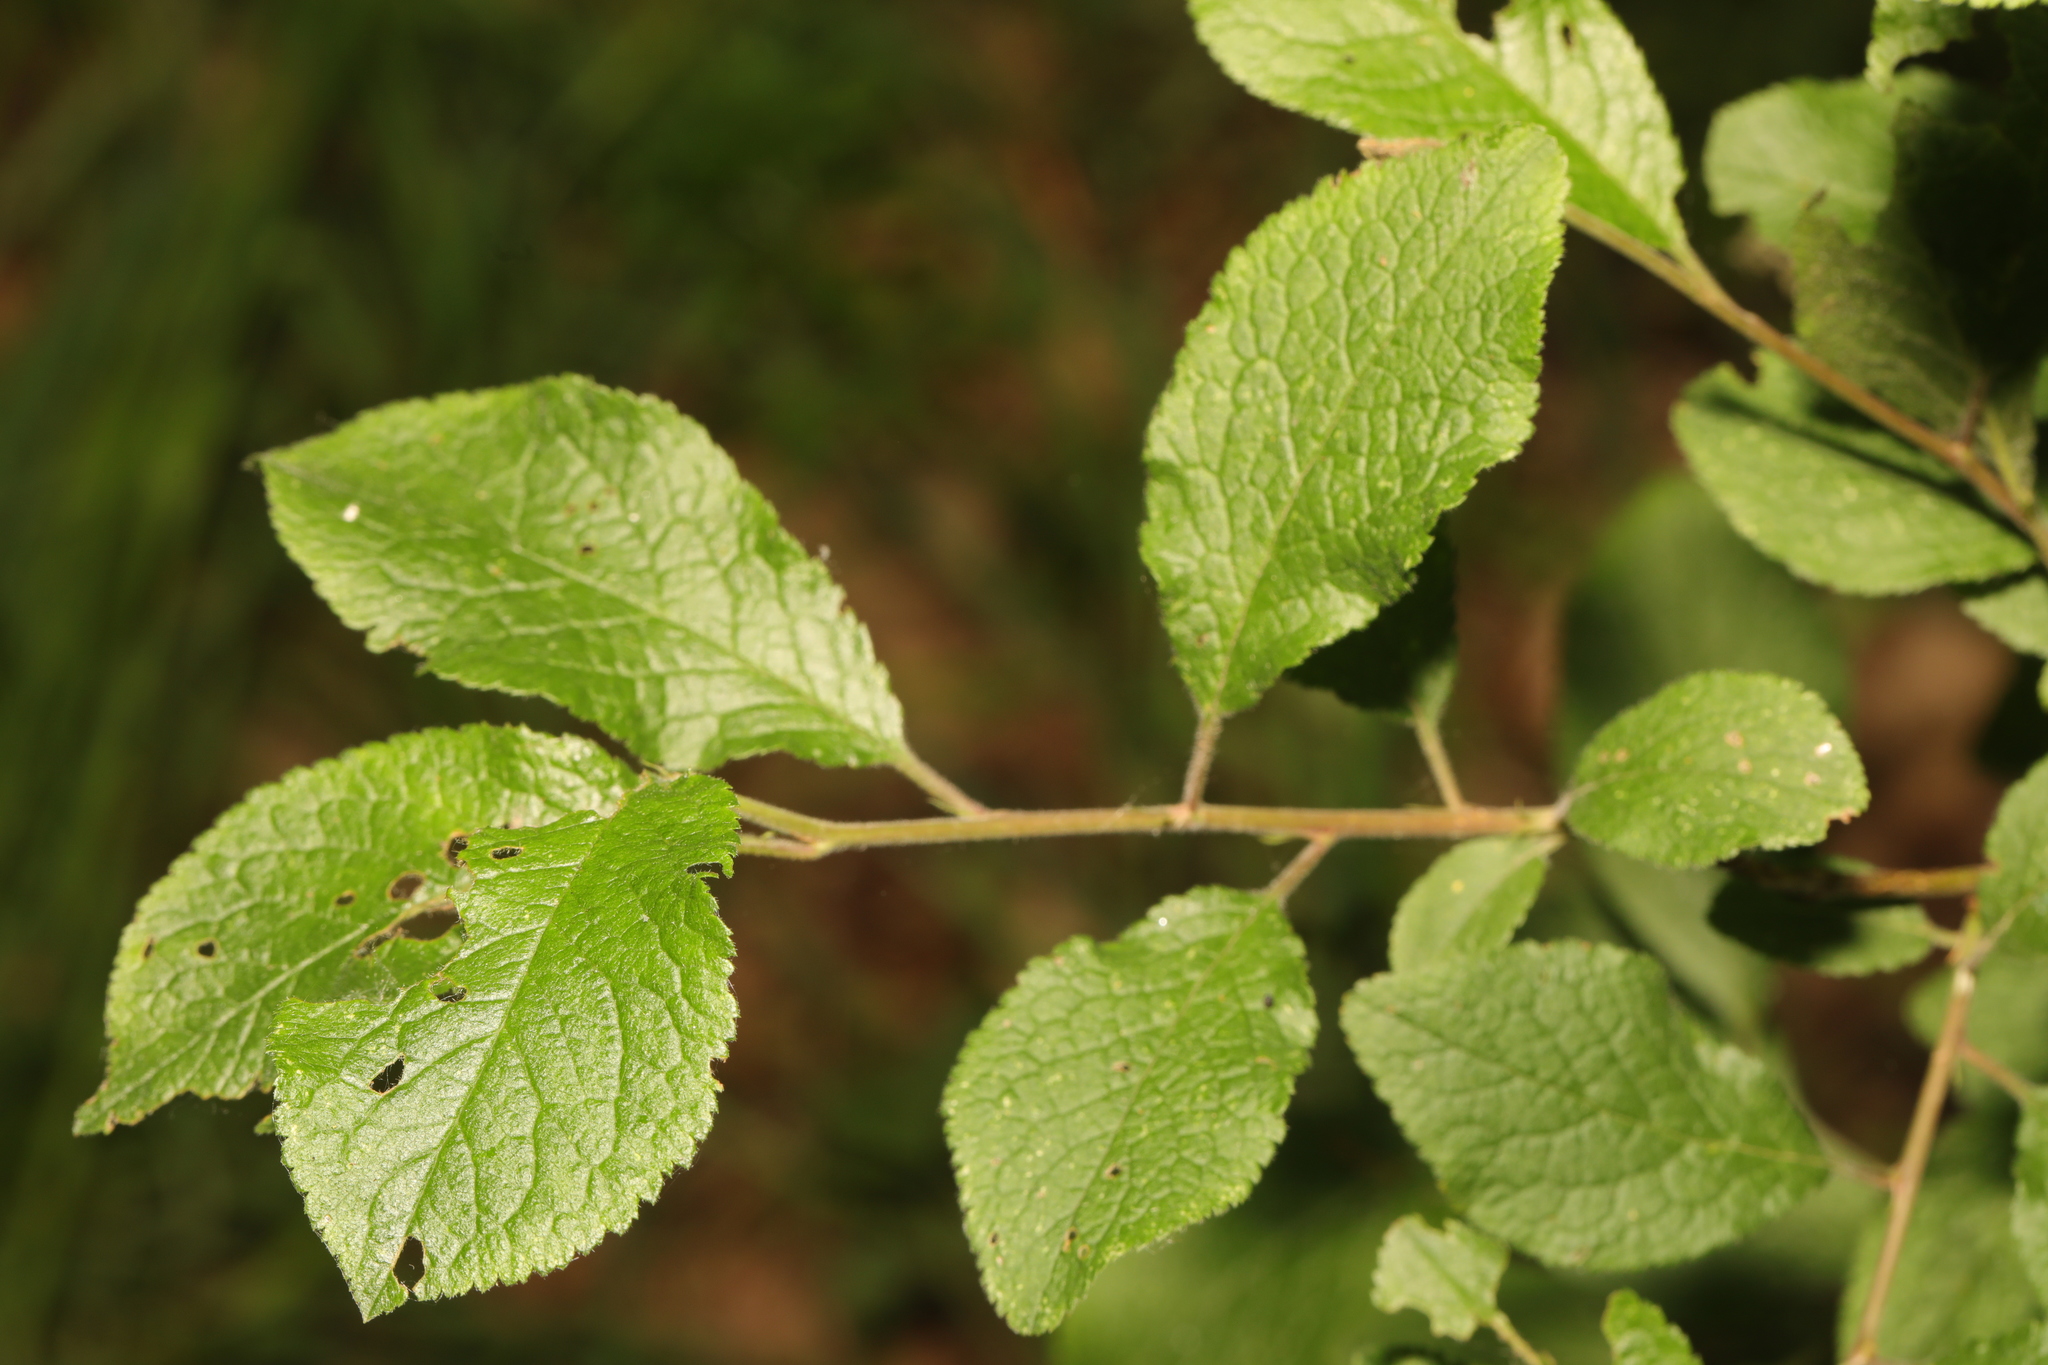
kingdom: Plantae
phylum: Tracheophyta
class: Magnoliopsida
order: Rosales
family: Rosaceae
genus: Prunus
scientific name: Prunus domestica
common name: Wild plum
